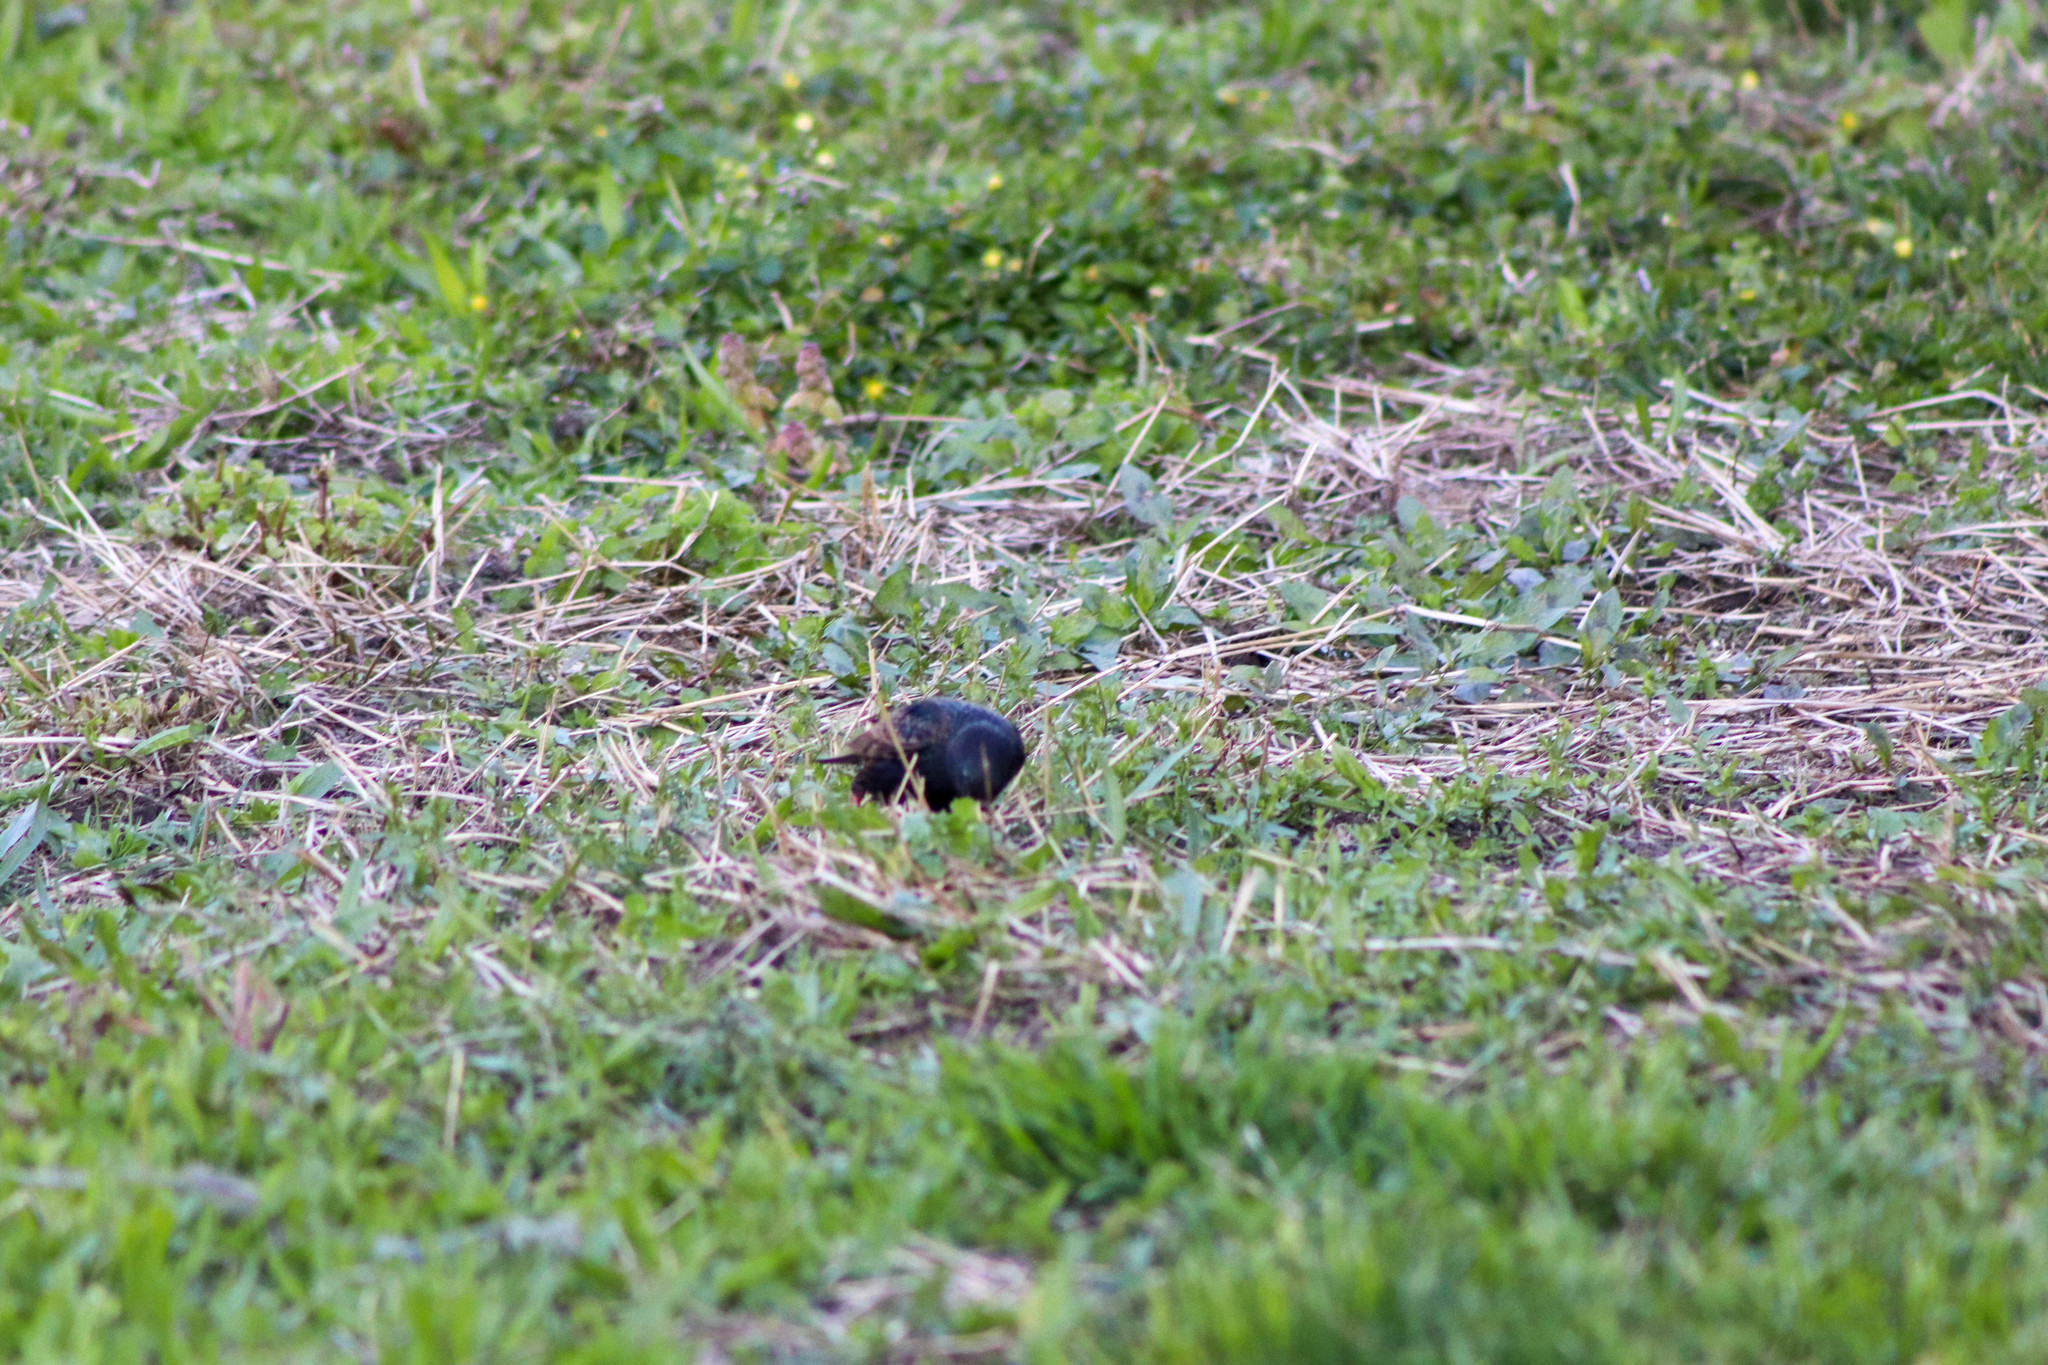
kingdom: Animalia
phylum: Chordata
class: Aves
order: Passeriformes
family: Sturnidae
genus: Sturnus
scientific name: Sturnus vulgaris
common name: Common starling
